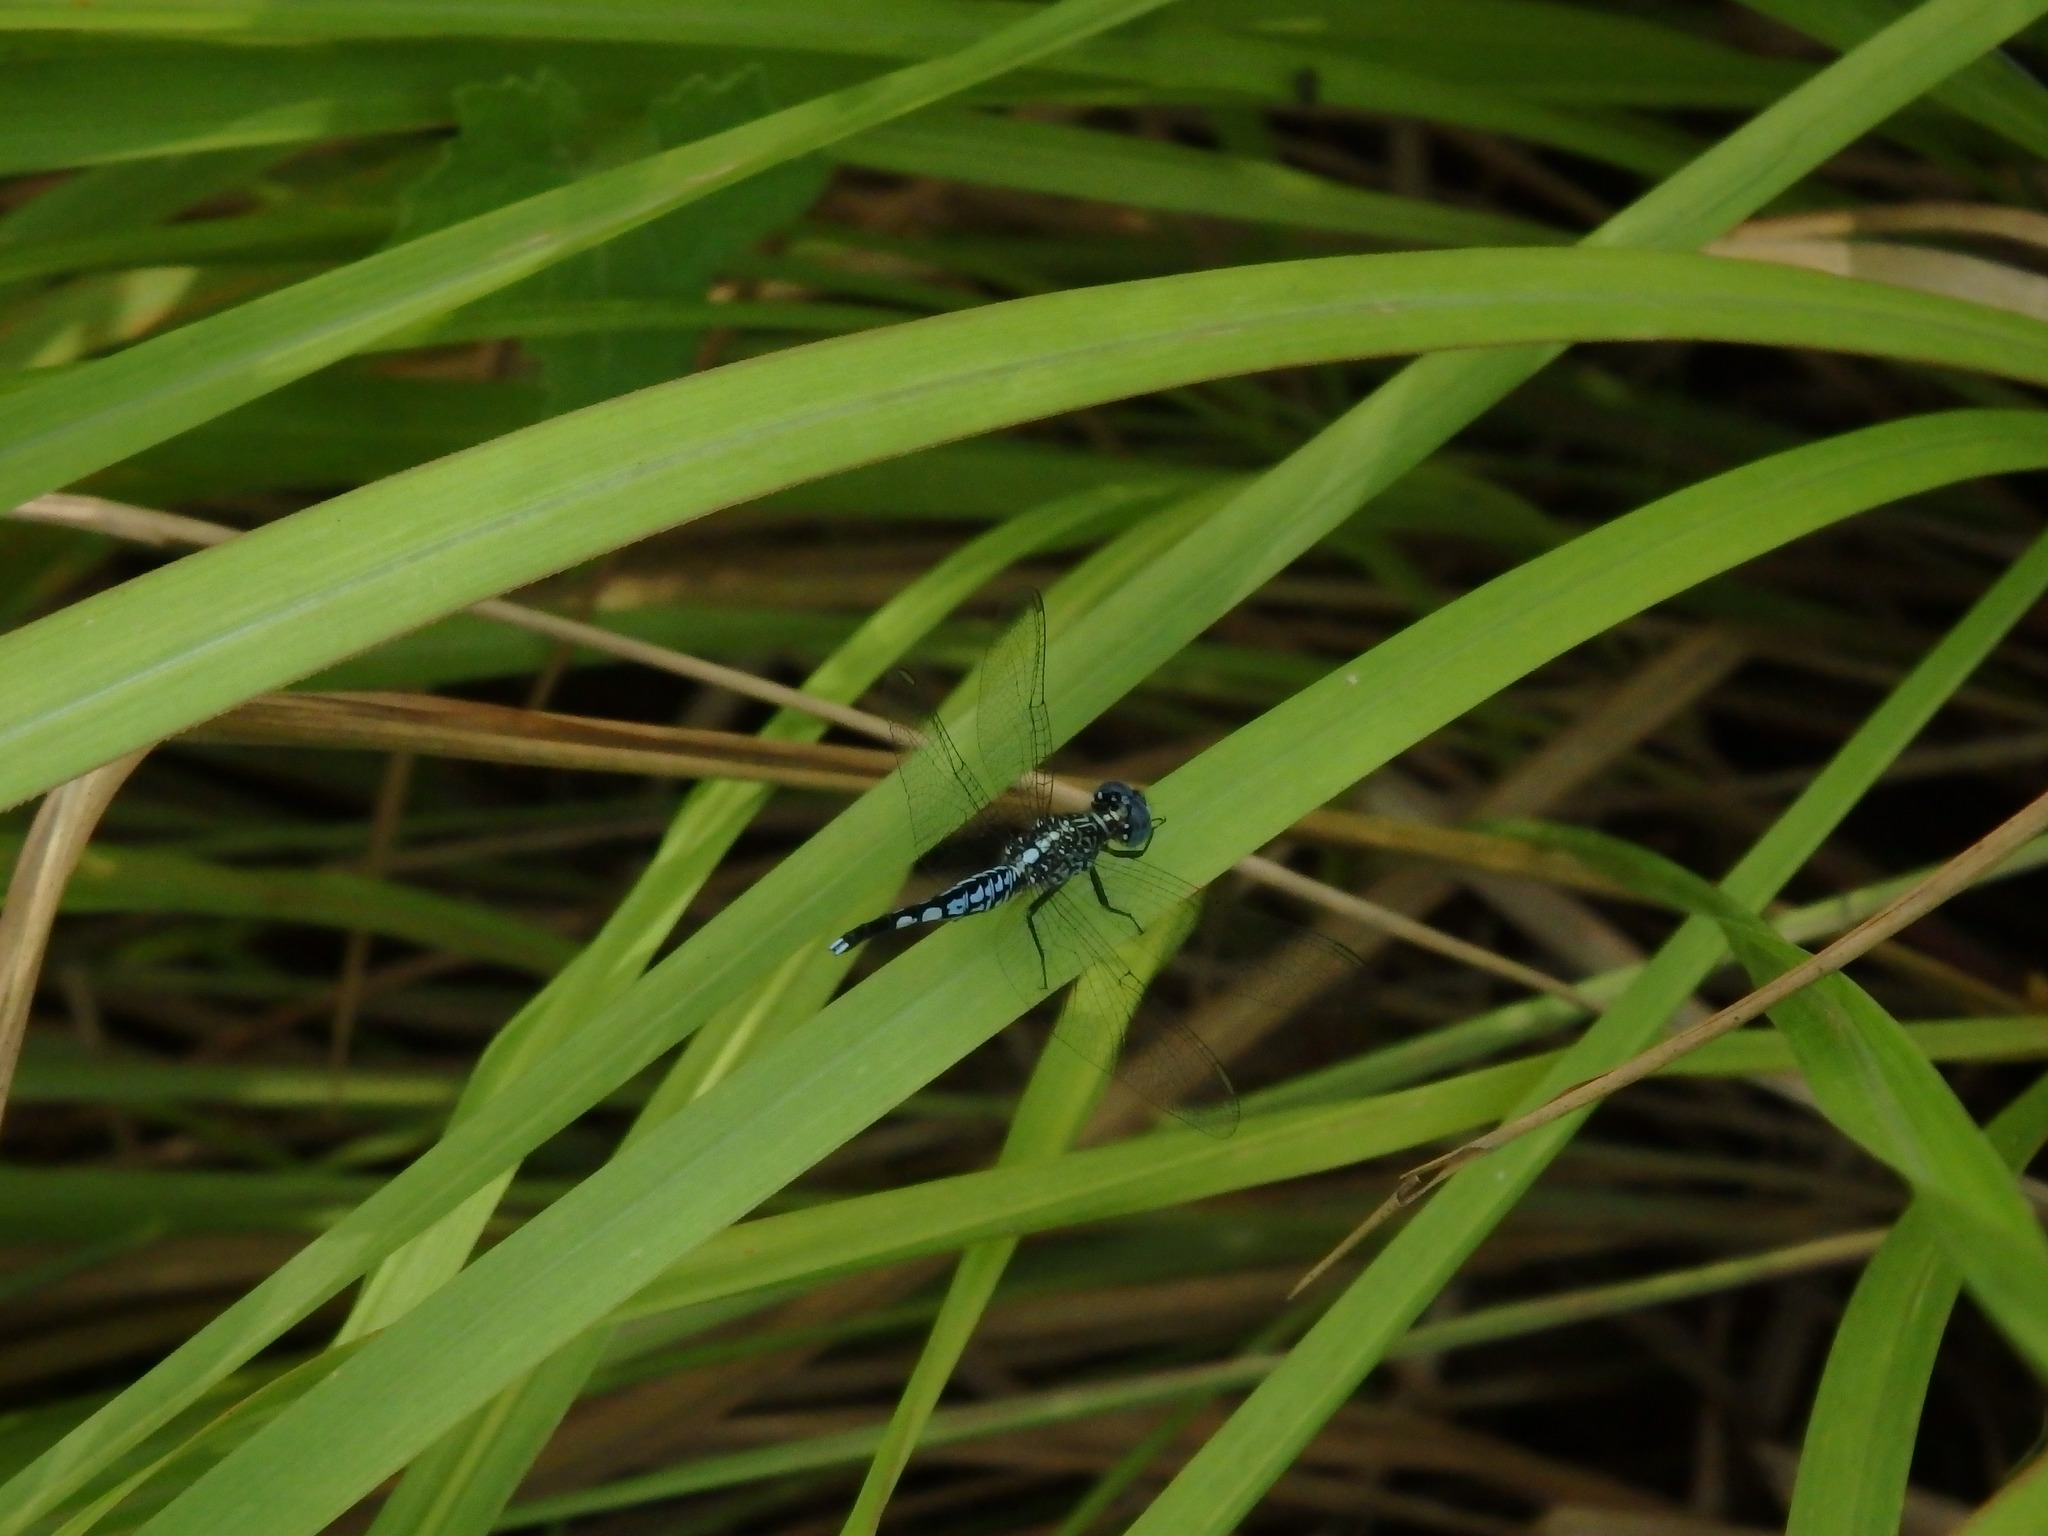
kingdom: Animalia
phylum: Arthropoda
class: Insecta
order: Odonata
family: Libellulidae
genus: Acisoma
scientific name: Acisoma panorpoides
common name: Asian pintail
